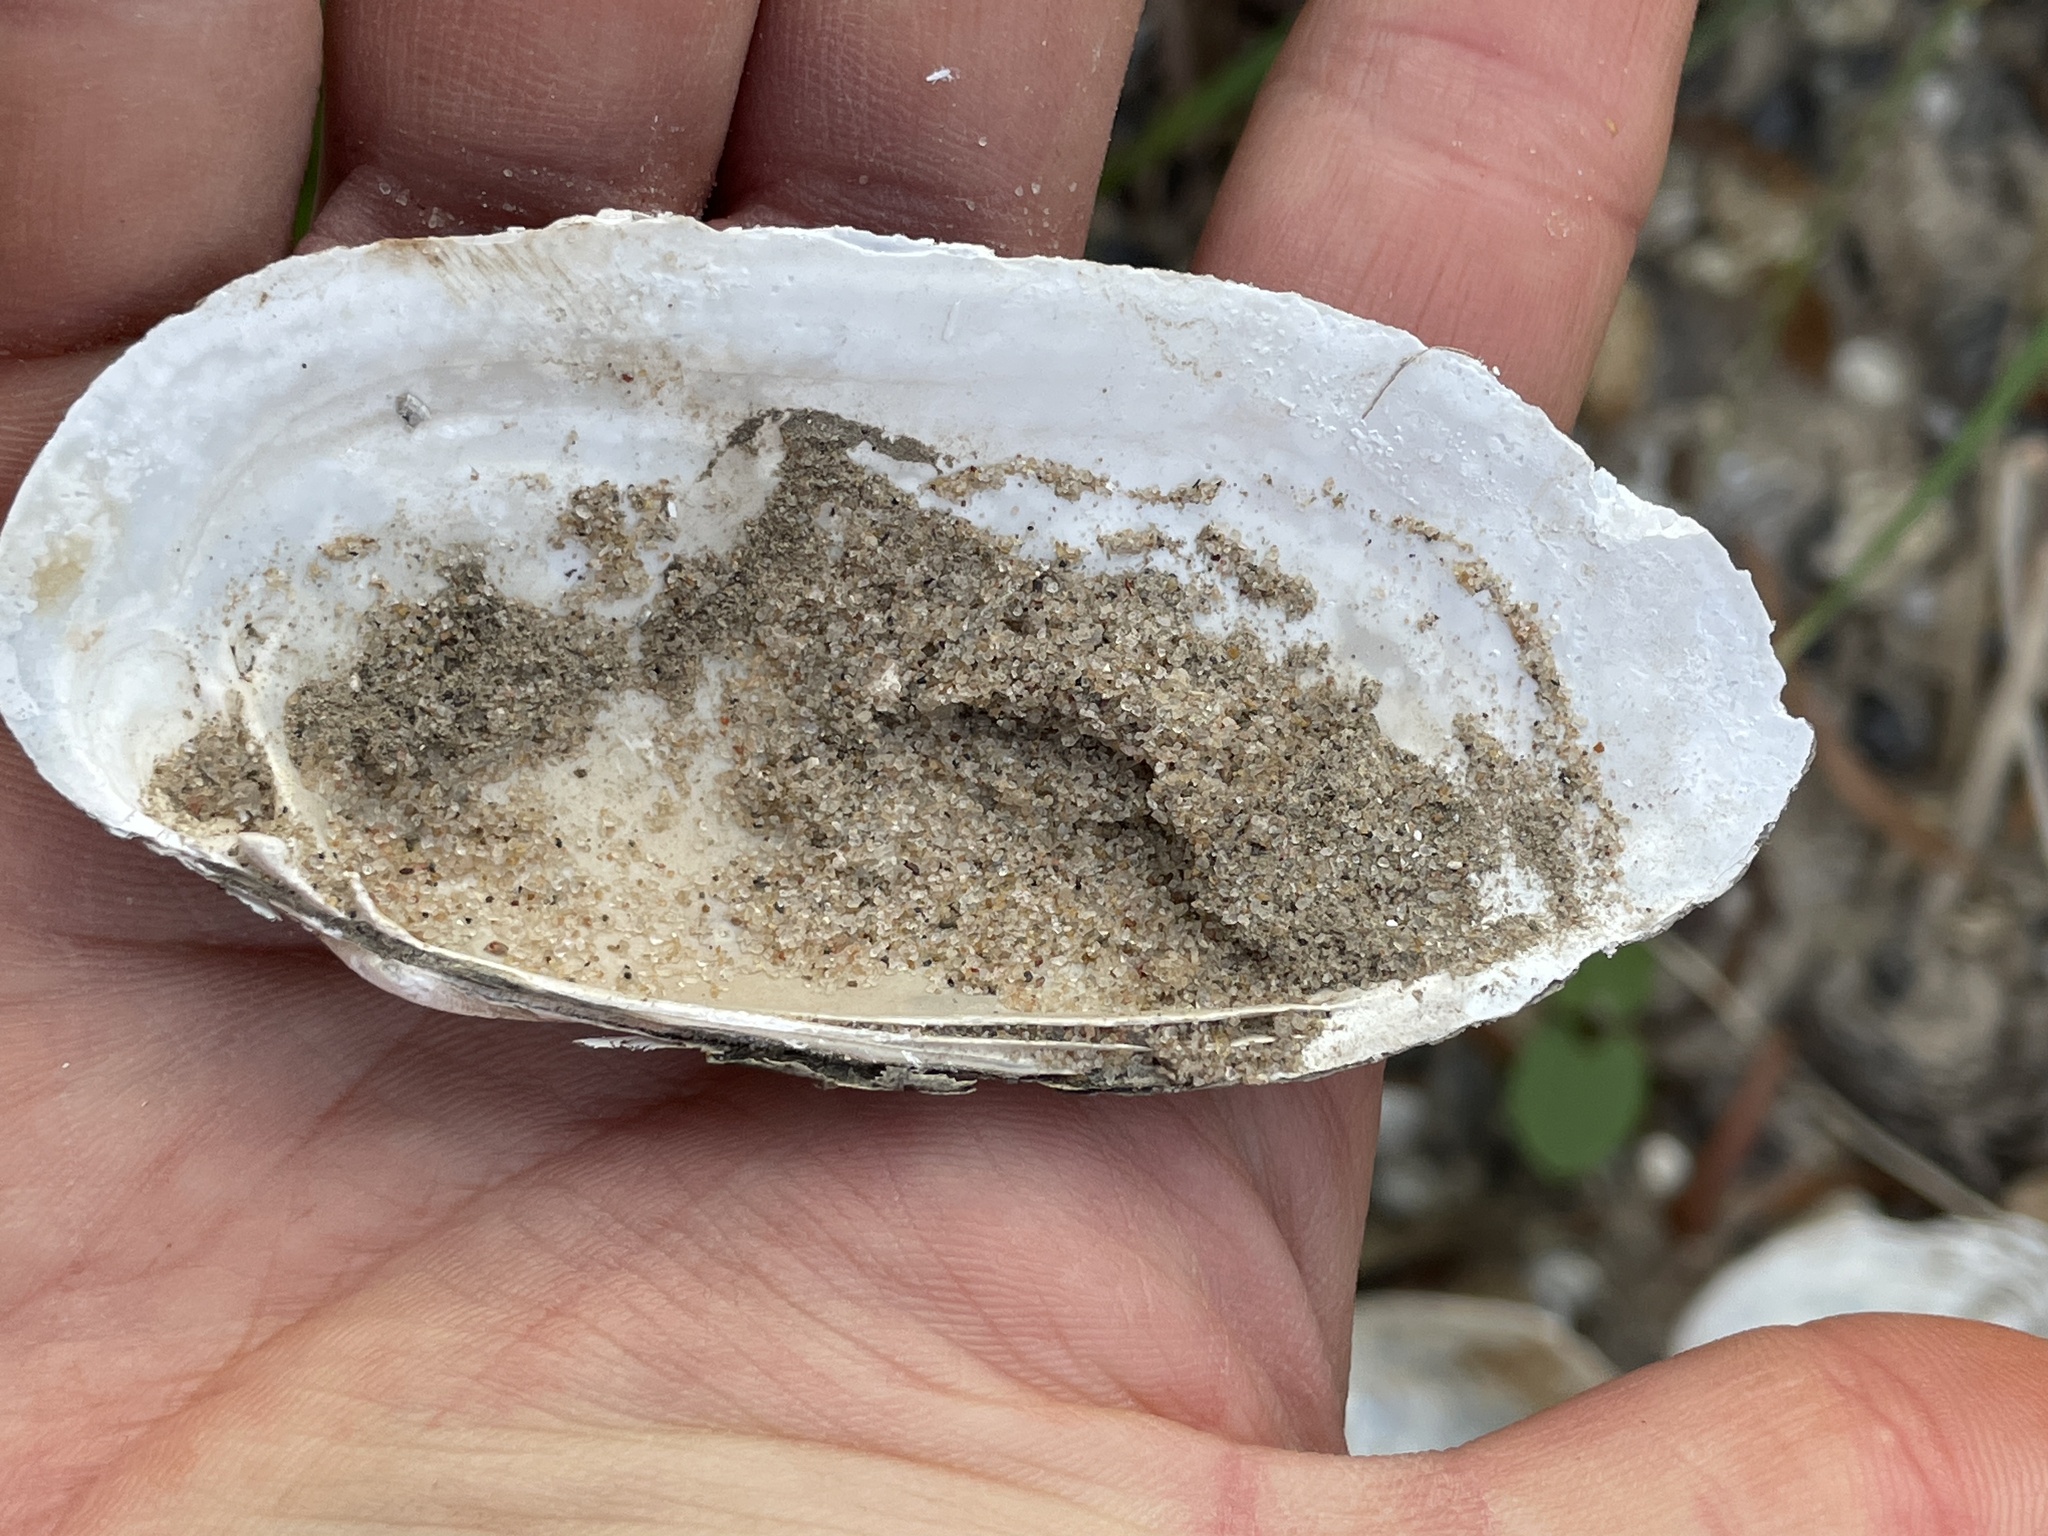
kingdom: Animalia
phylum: Mollusca
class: Bivalvia
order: Unionida
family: Unionidae
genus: Lampsilis
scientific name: Lampsilis teres
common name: Yellow sandshell
